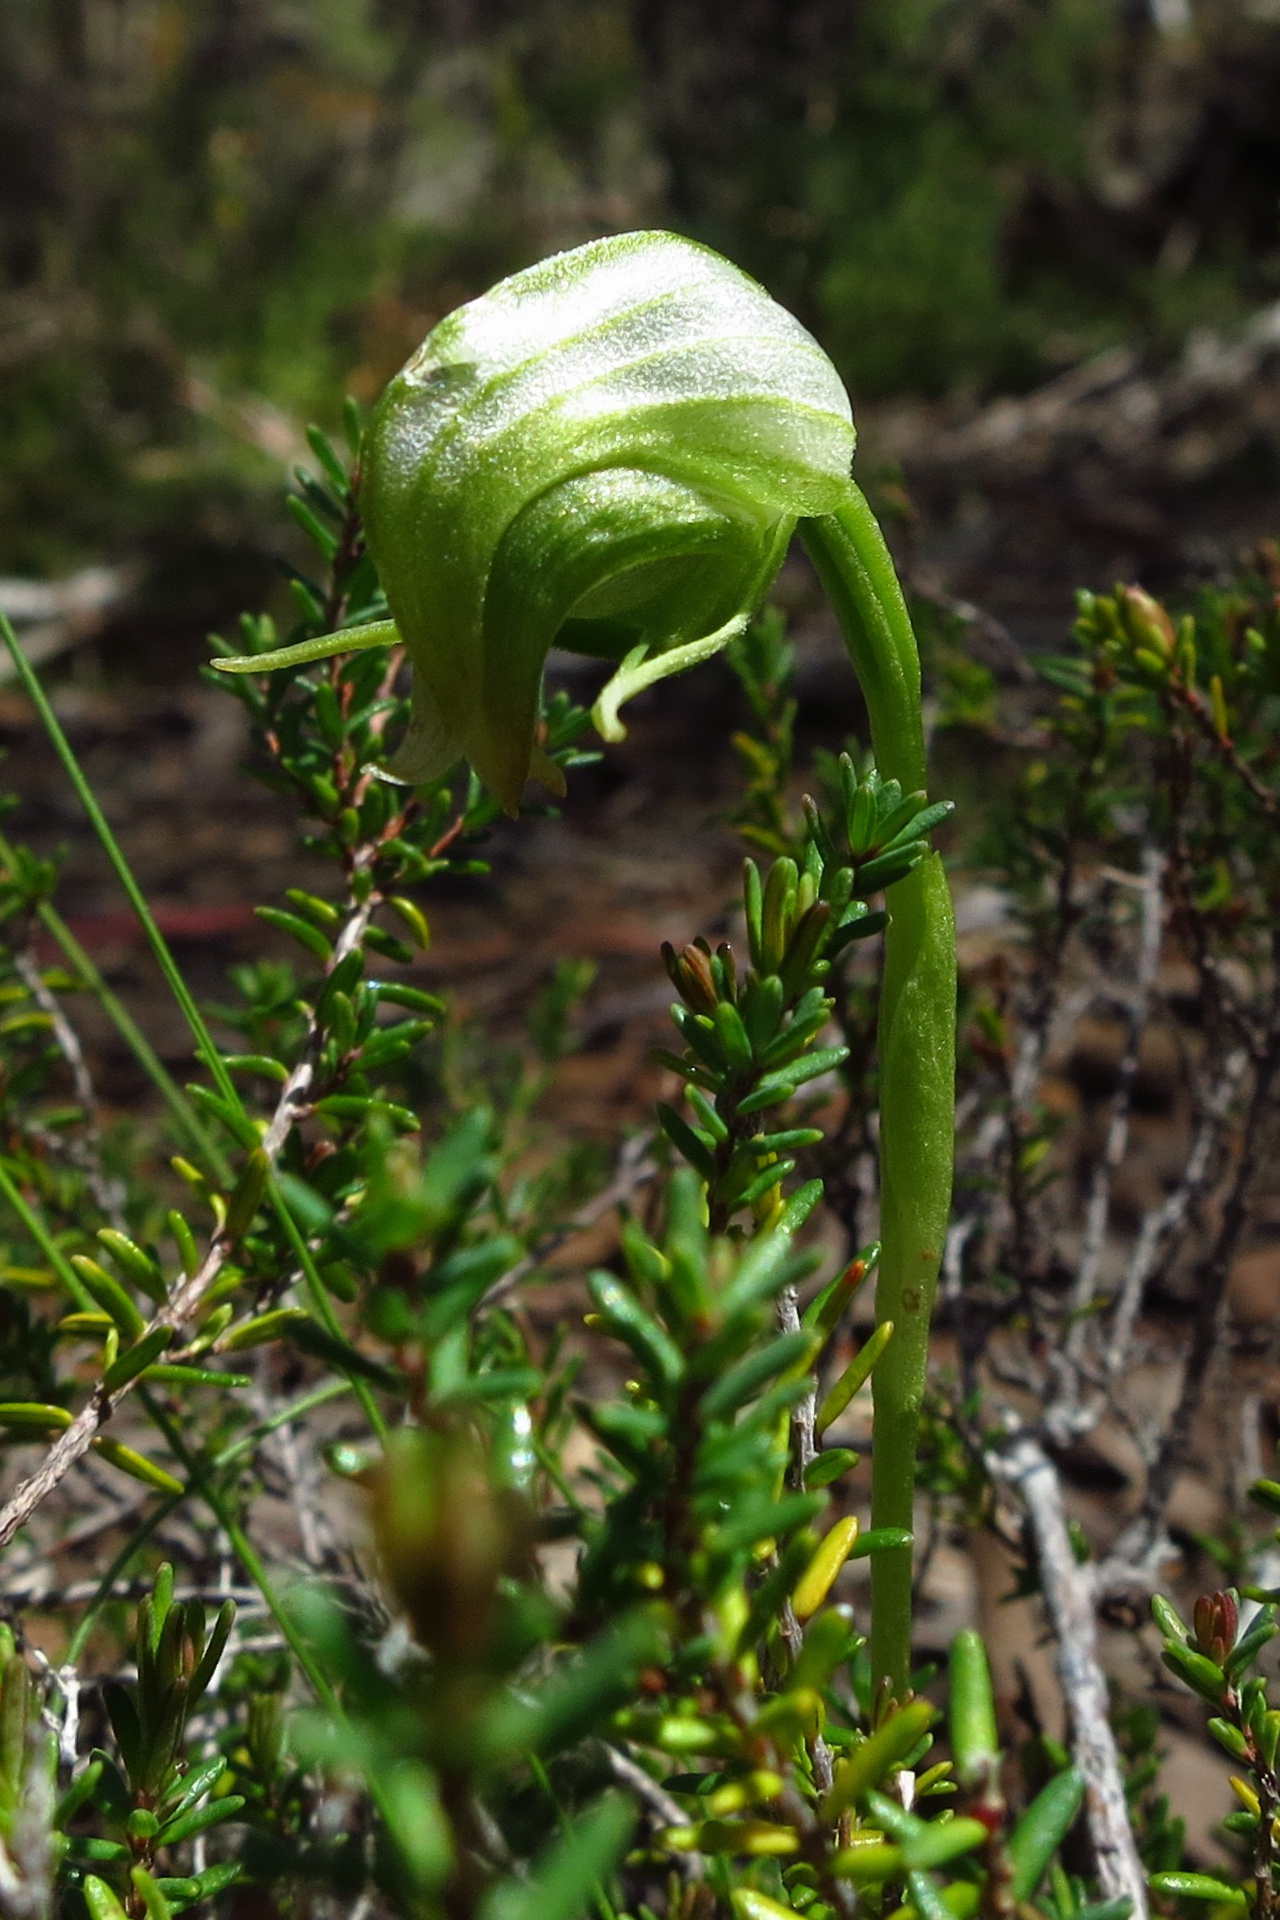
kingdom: Plantae
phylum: Tracheophyta
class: Liliopsida
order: Asparagales
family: Orchidaceae
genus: Pterostylis
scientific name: Pterostylis nutans
